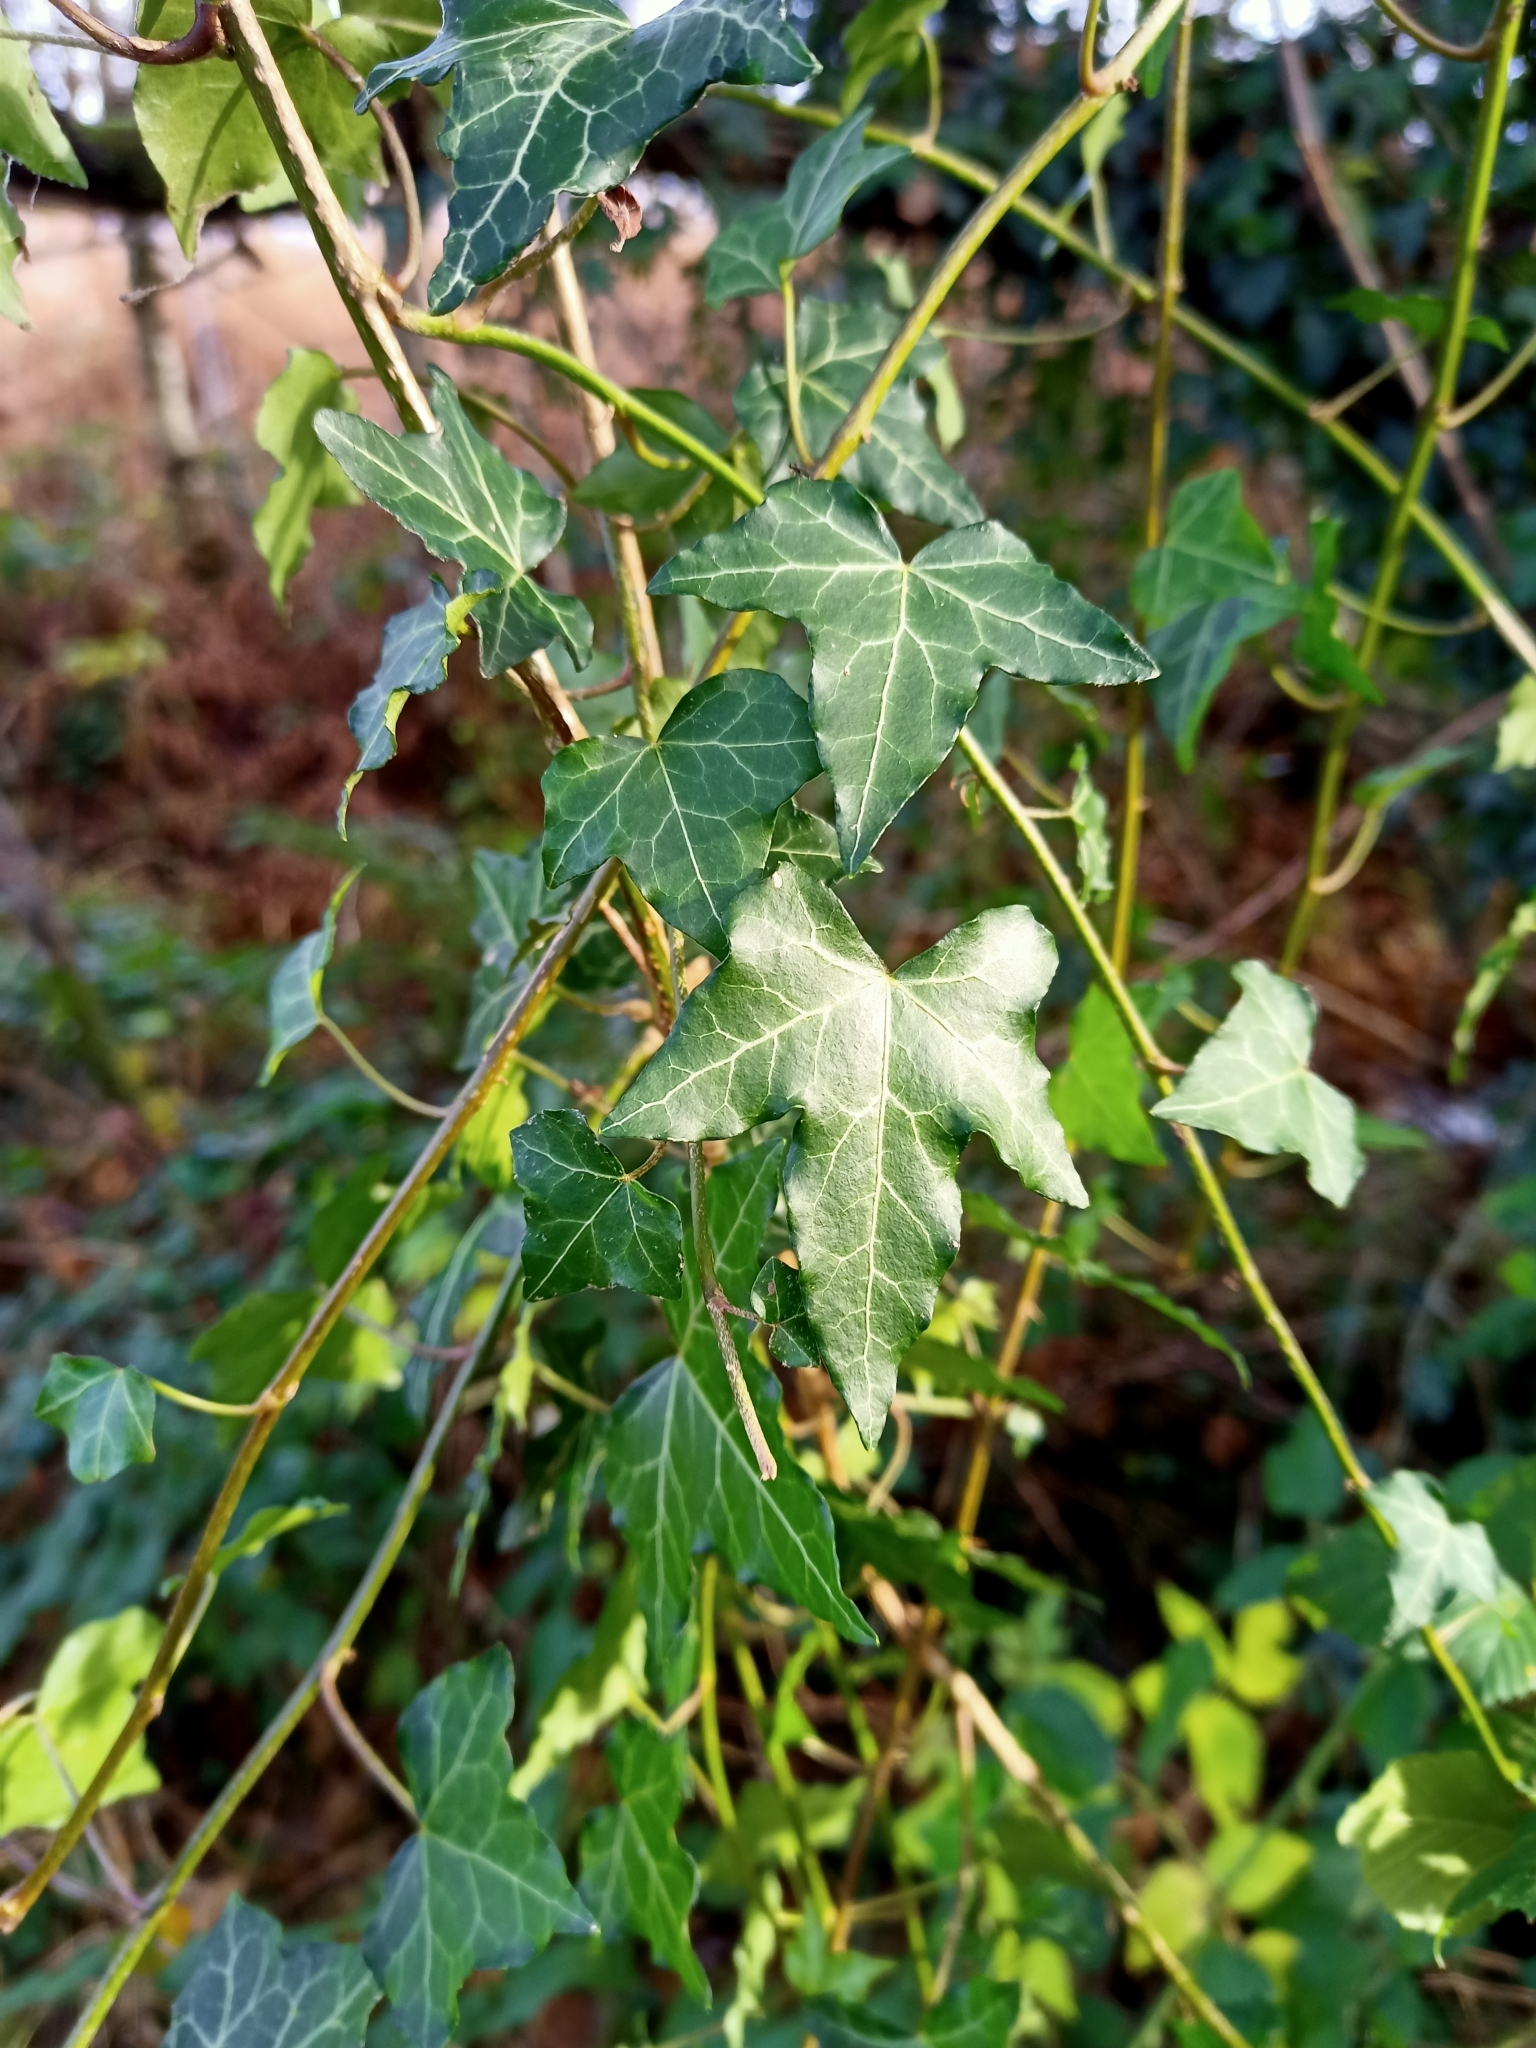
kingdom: Plantae
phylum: Tracheophyta
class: Magnoliopsida
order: Apiales
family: Araliaceae
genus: Hedera
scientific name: Hedera helix
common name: Ivy
